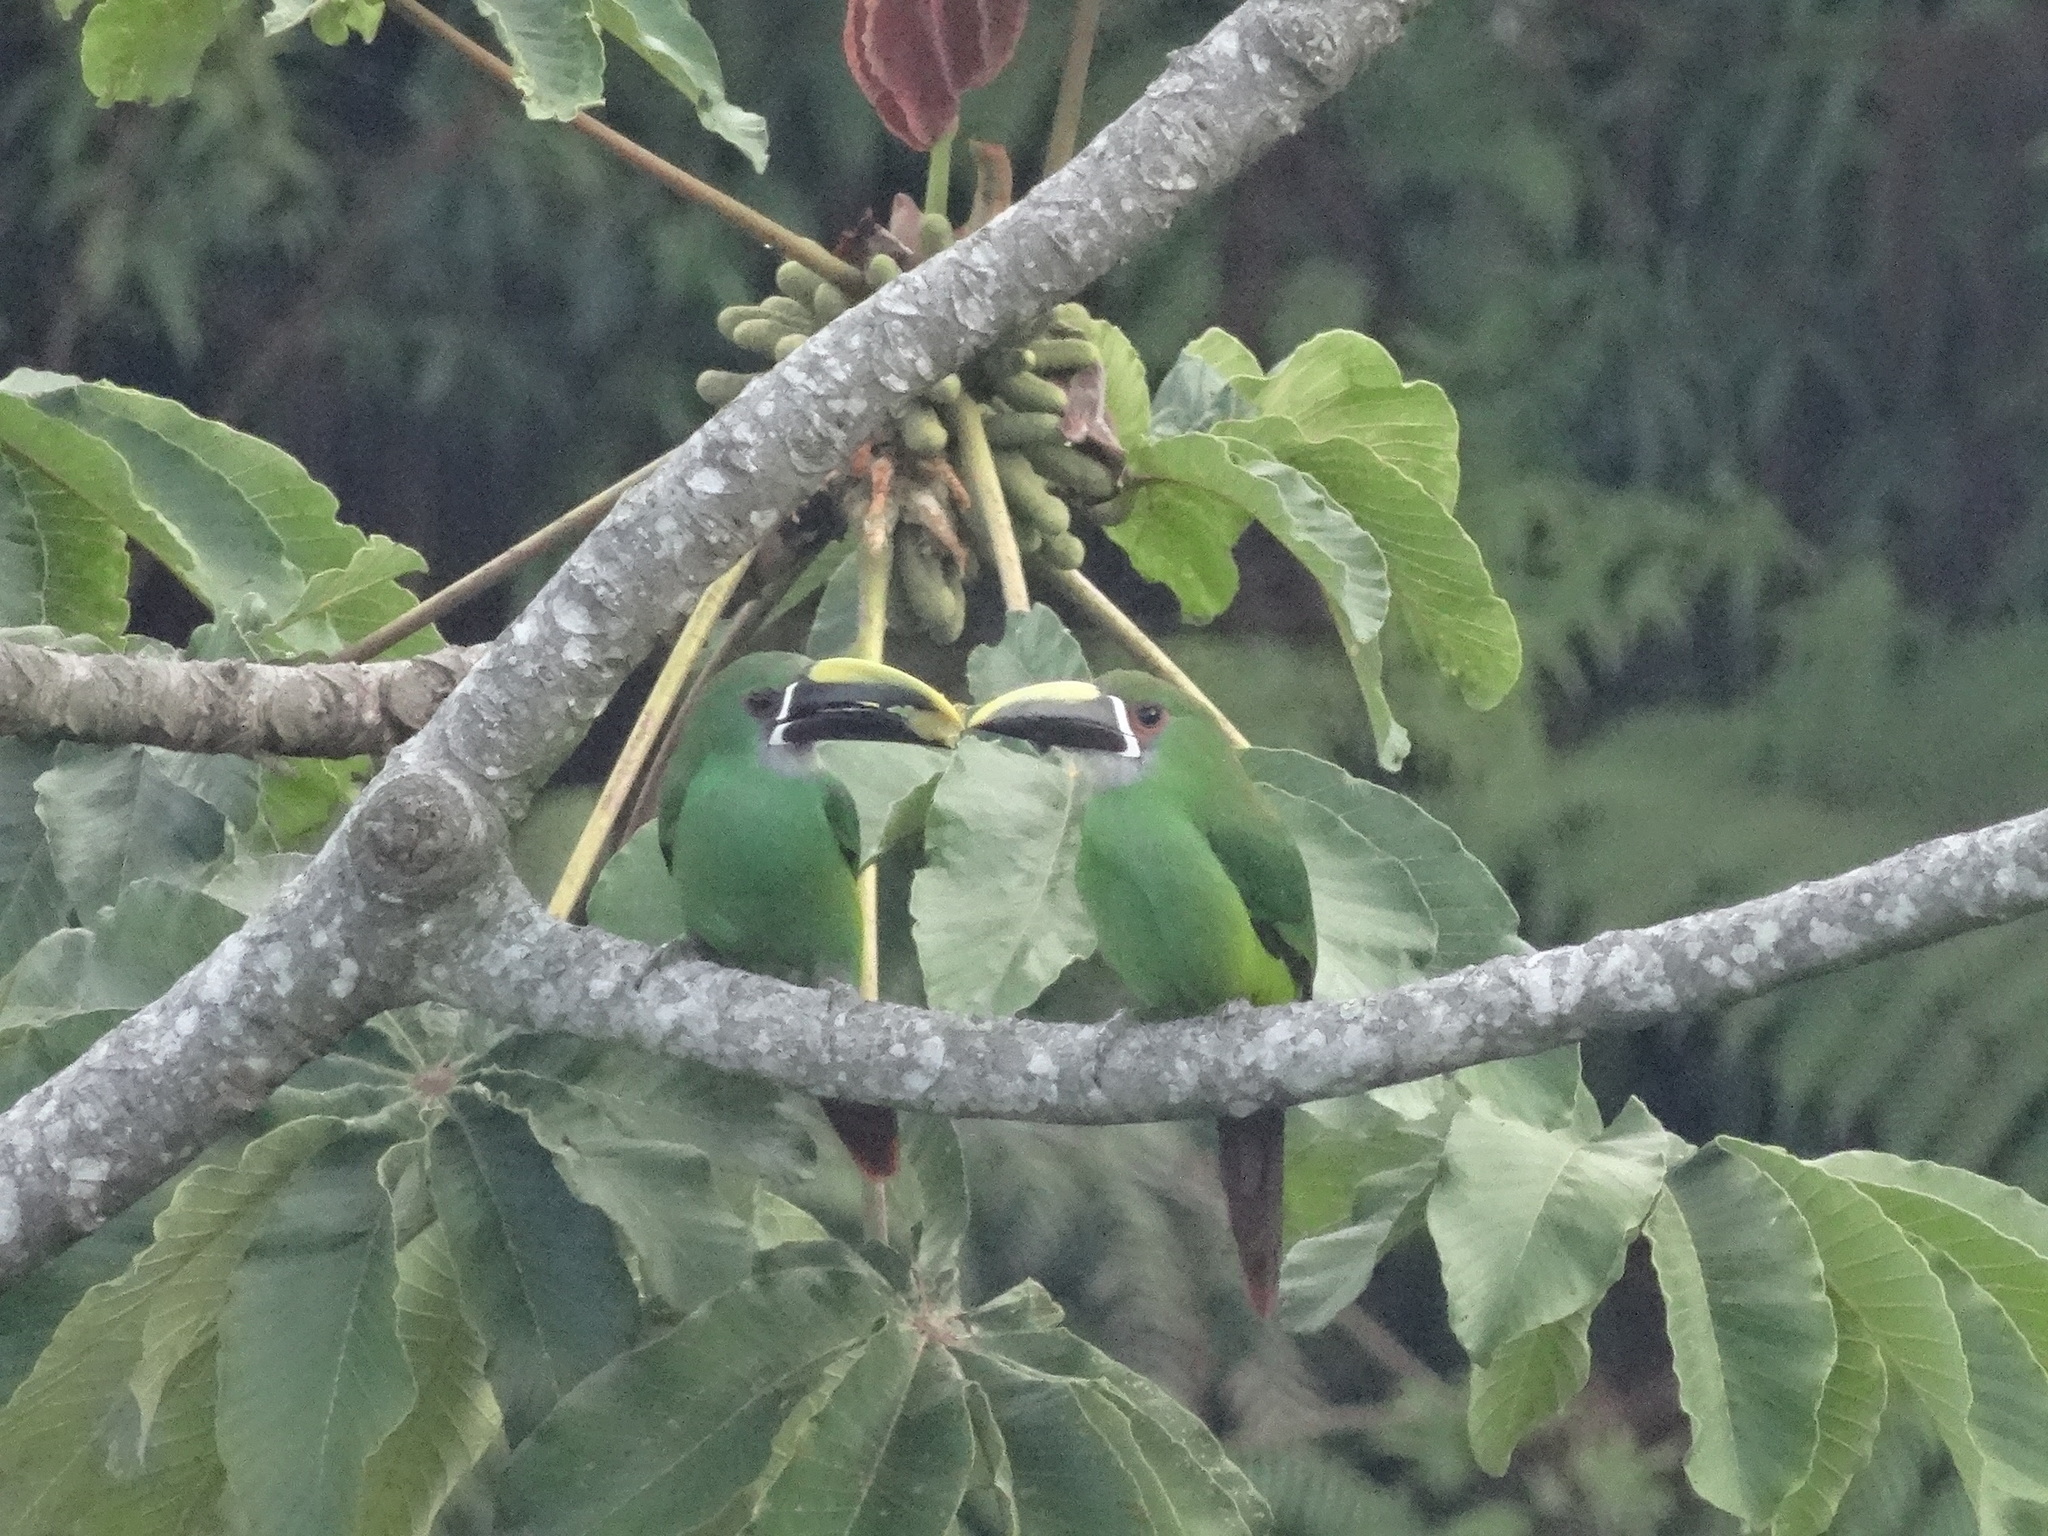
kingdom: Animalia
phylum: Chordata
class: Aves
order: Piciformes
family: Ramphastidae
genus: Aulacorhynchus
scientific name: Aulacorhynchus albivitta
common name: White-throated toucanet
